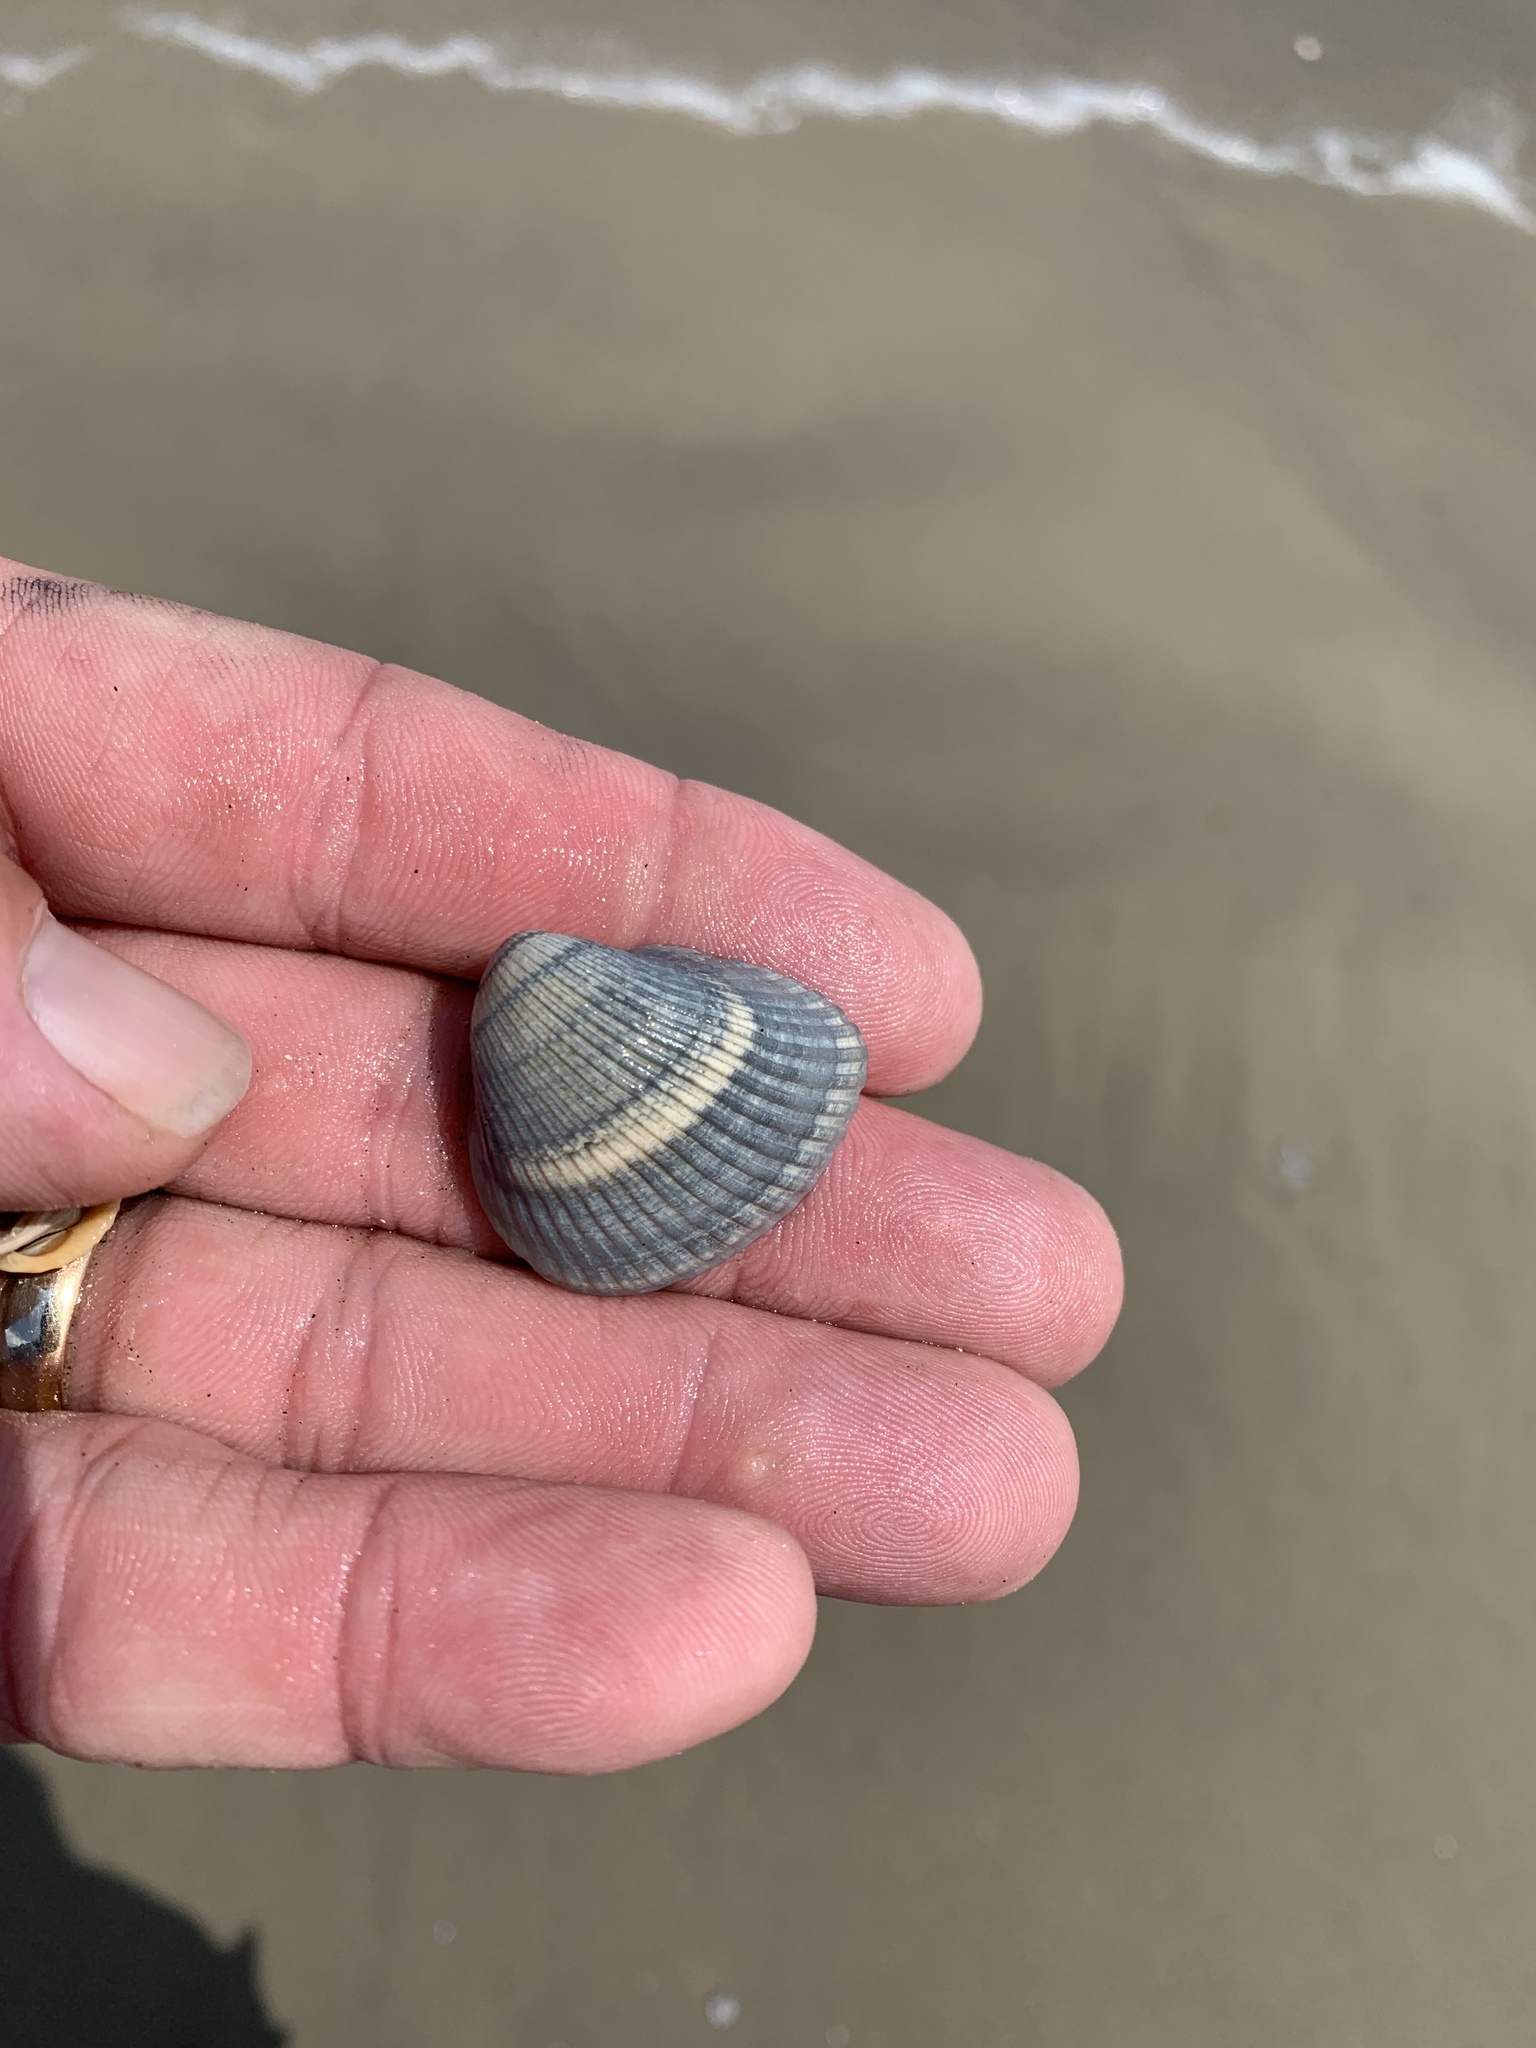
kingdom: Animalia
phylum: Mollusca
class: Bivalvia
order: Arcida
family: Noetiidae
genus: Noetia
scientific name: Noetia ponderosa
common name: Ponderous ark
